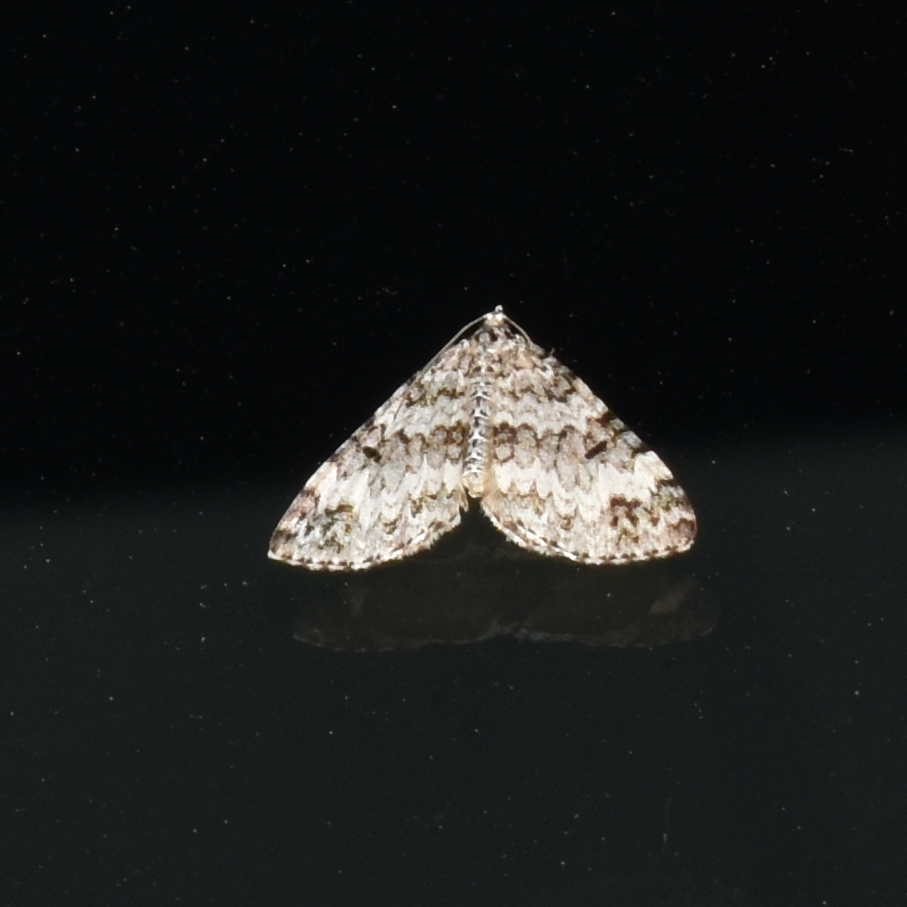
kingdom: Animalia
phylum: Arthropoda
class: Insecta
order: Lepidoptera
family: Geometridae
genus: Spargania
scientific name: Spargania magnoliata
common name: Double-banded carpet
